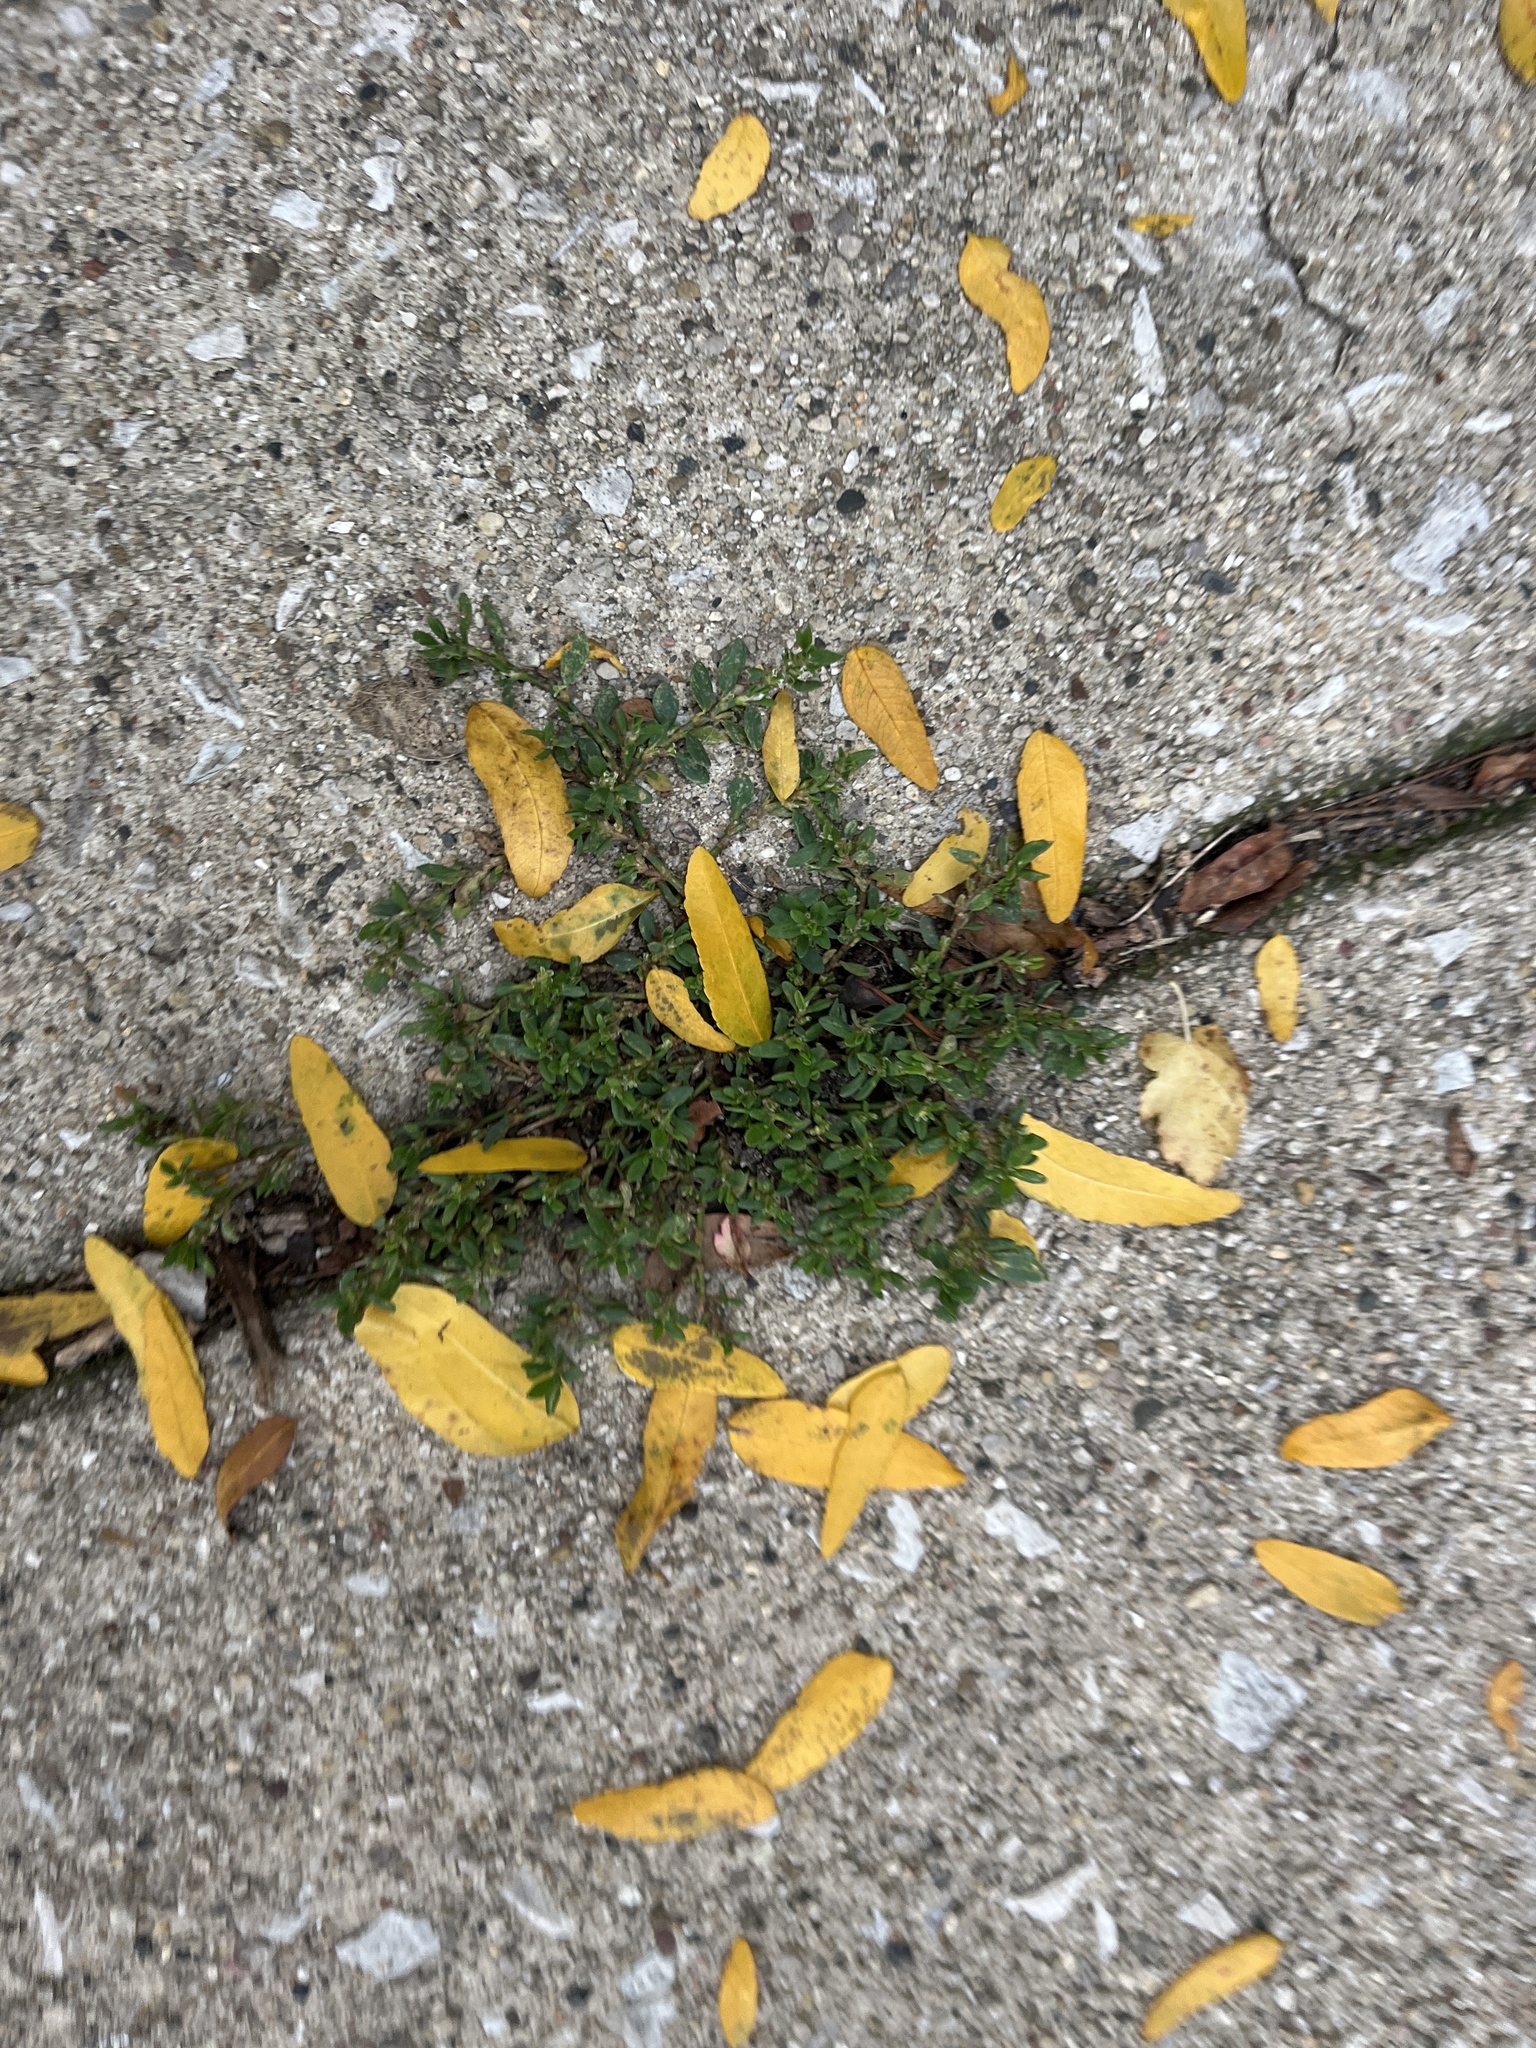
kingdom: Plantae
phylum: Tracheophyta
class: Magnoliopsida
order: Caryophyllales
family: Polygonaceae
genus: Polygonum
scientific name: Polygonum aviculare
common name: Prostrate knotweed
